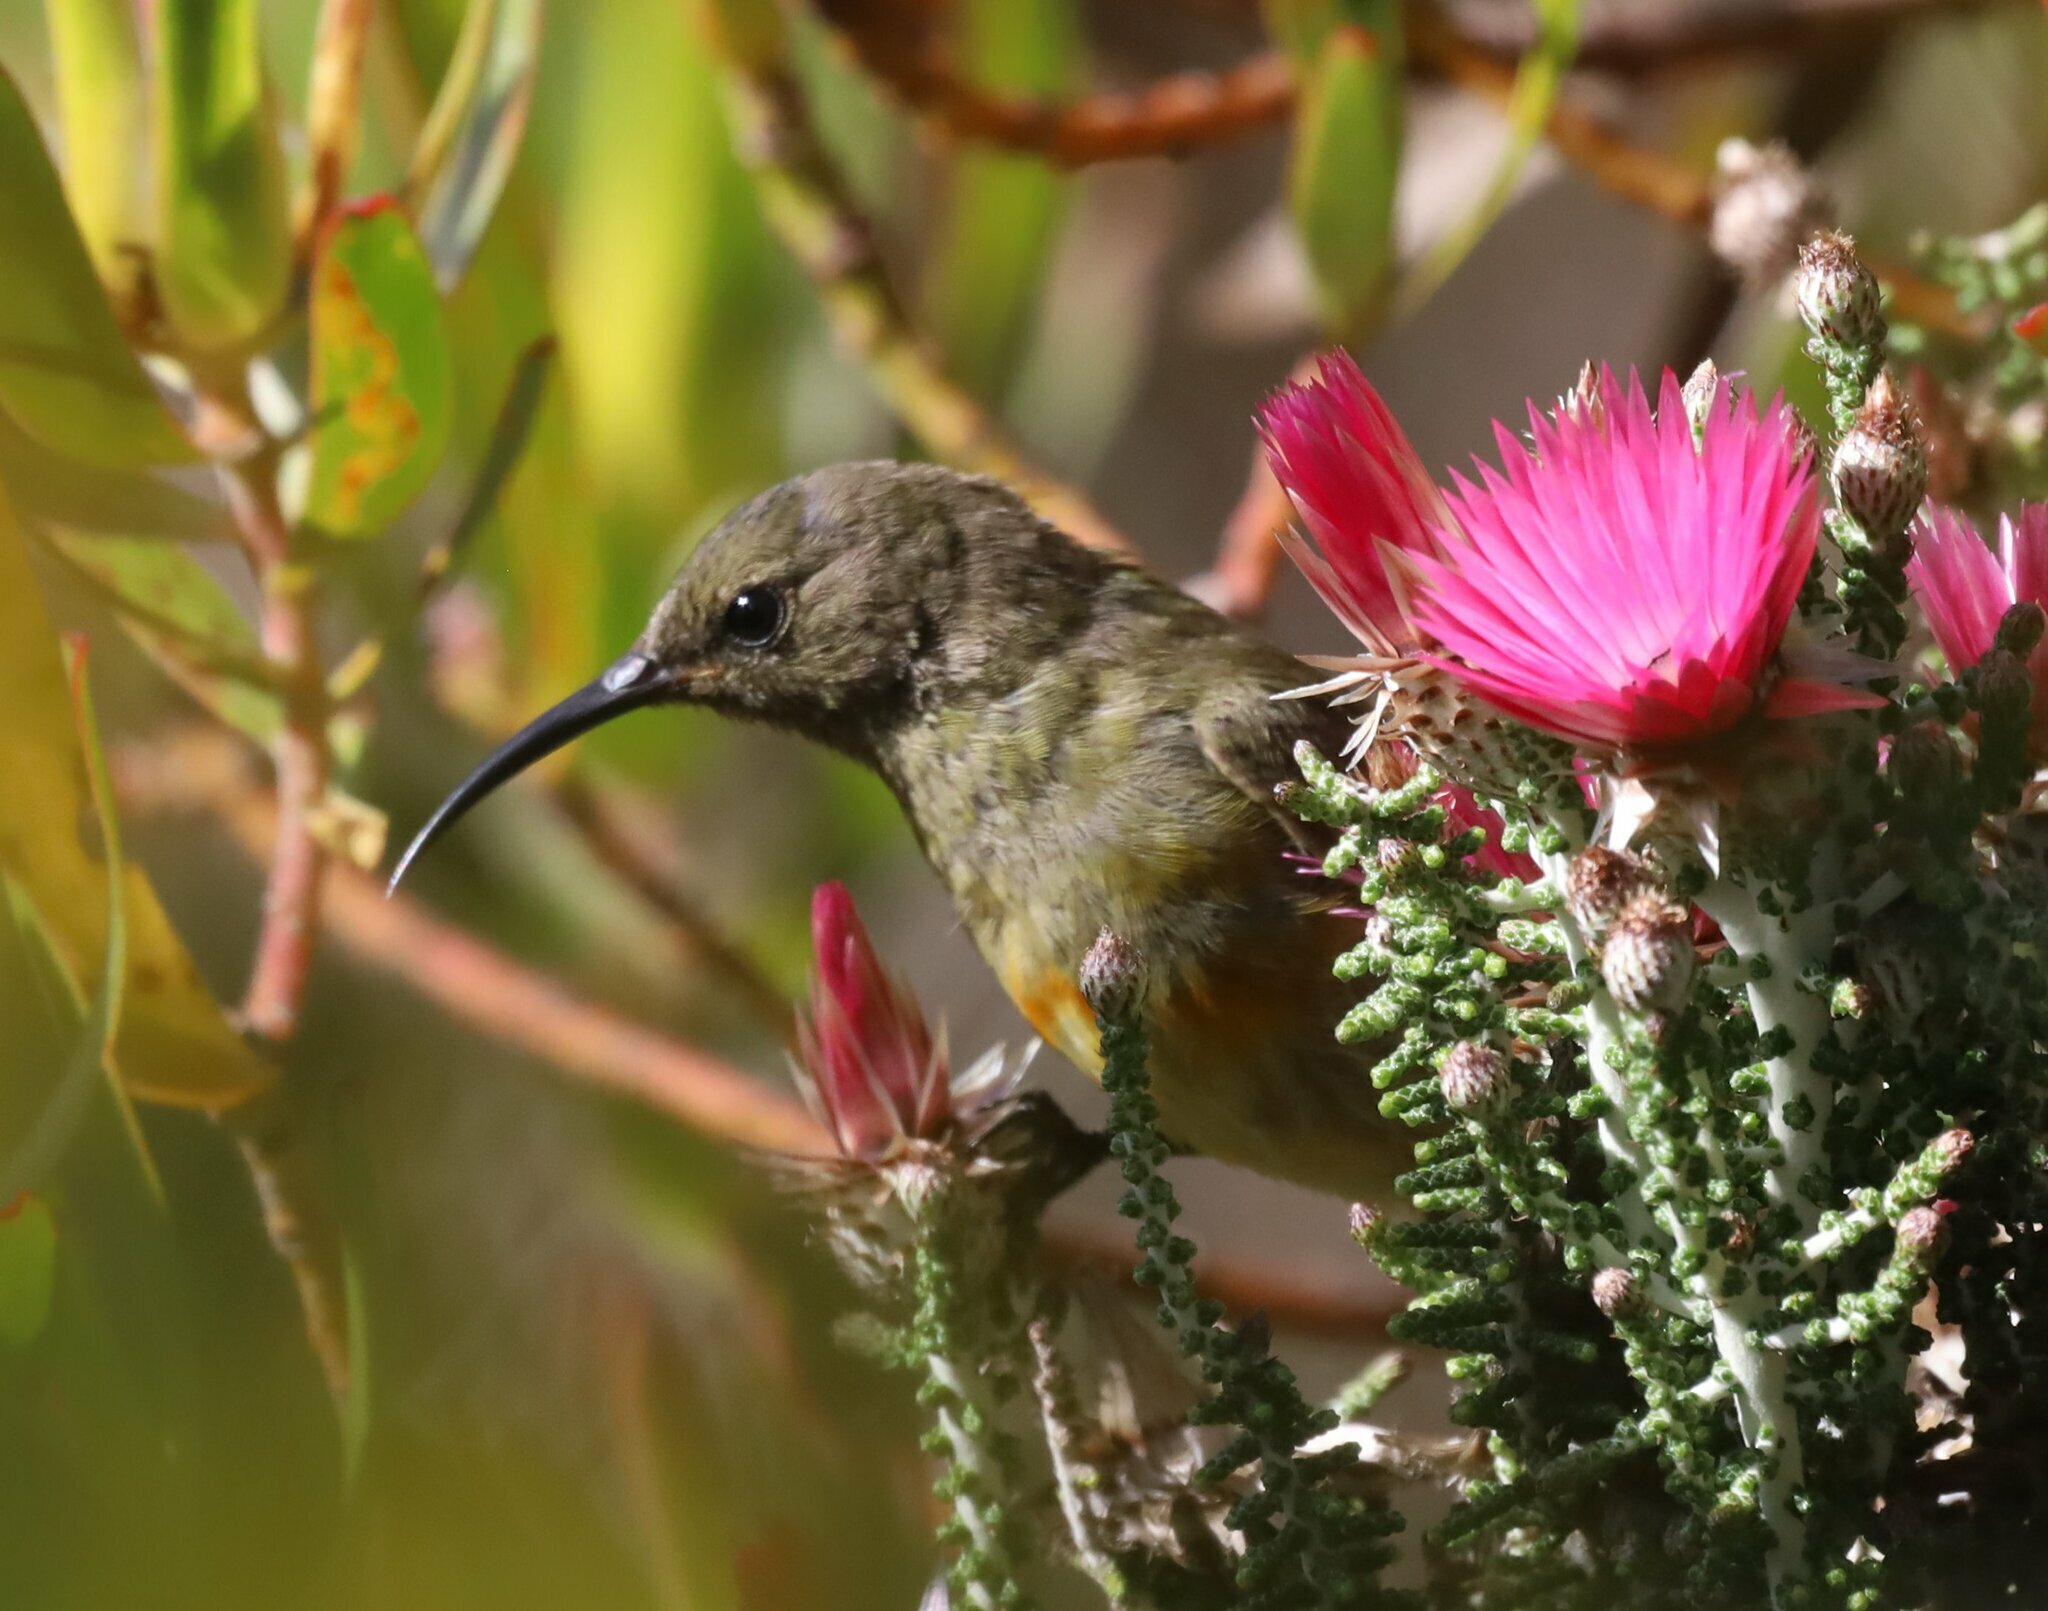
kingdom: Animalia
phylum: Chordata
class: Aves
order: Passeriformes
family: Nectariniidae
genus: Anthobaphes
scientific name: Anthobaphes violacea
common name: Orange-breasted sunbird
